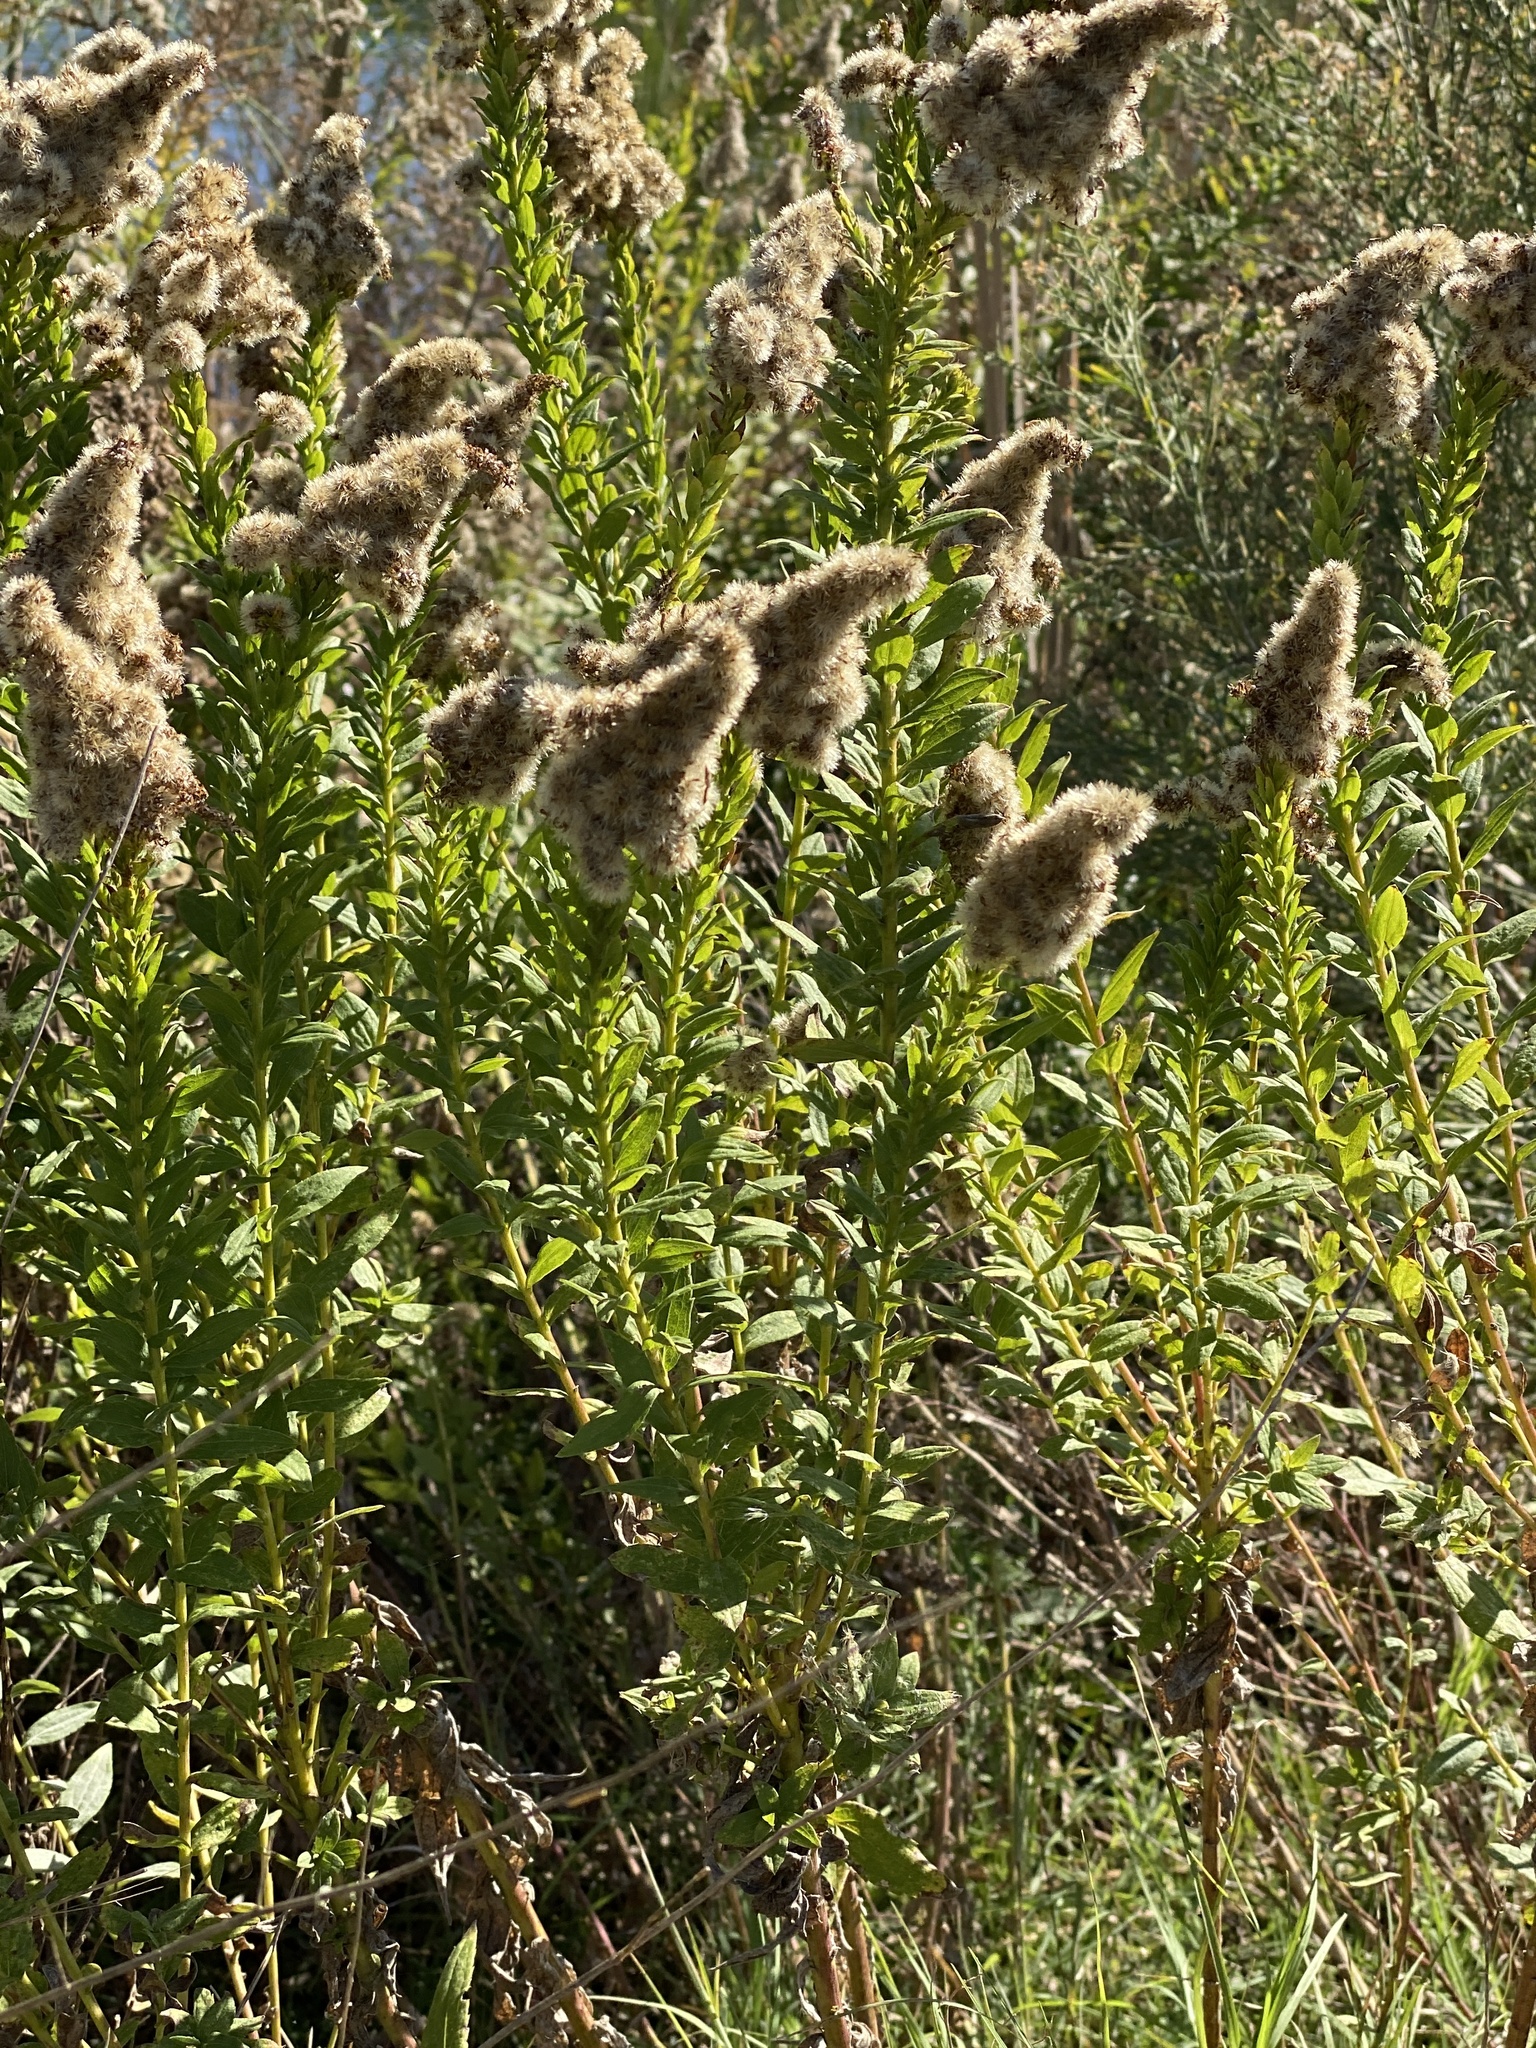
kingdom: Plantae
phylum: Tracheophyta
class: Magnoliopsida
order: Asterales
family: Asteraceae
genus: Solidago
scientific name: Solidago altissima
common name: Late goldenrod
